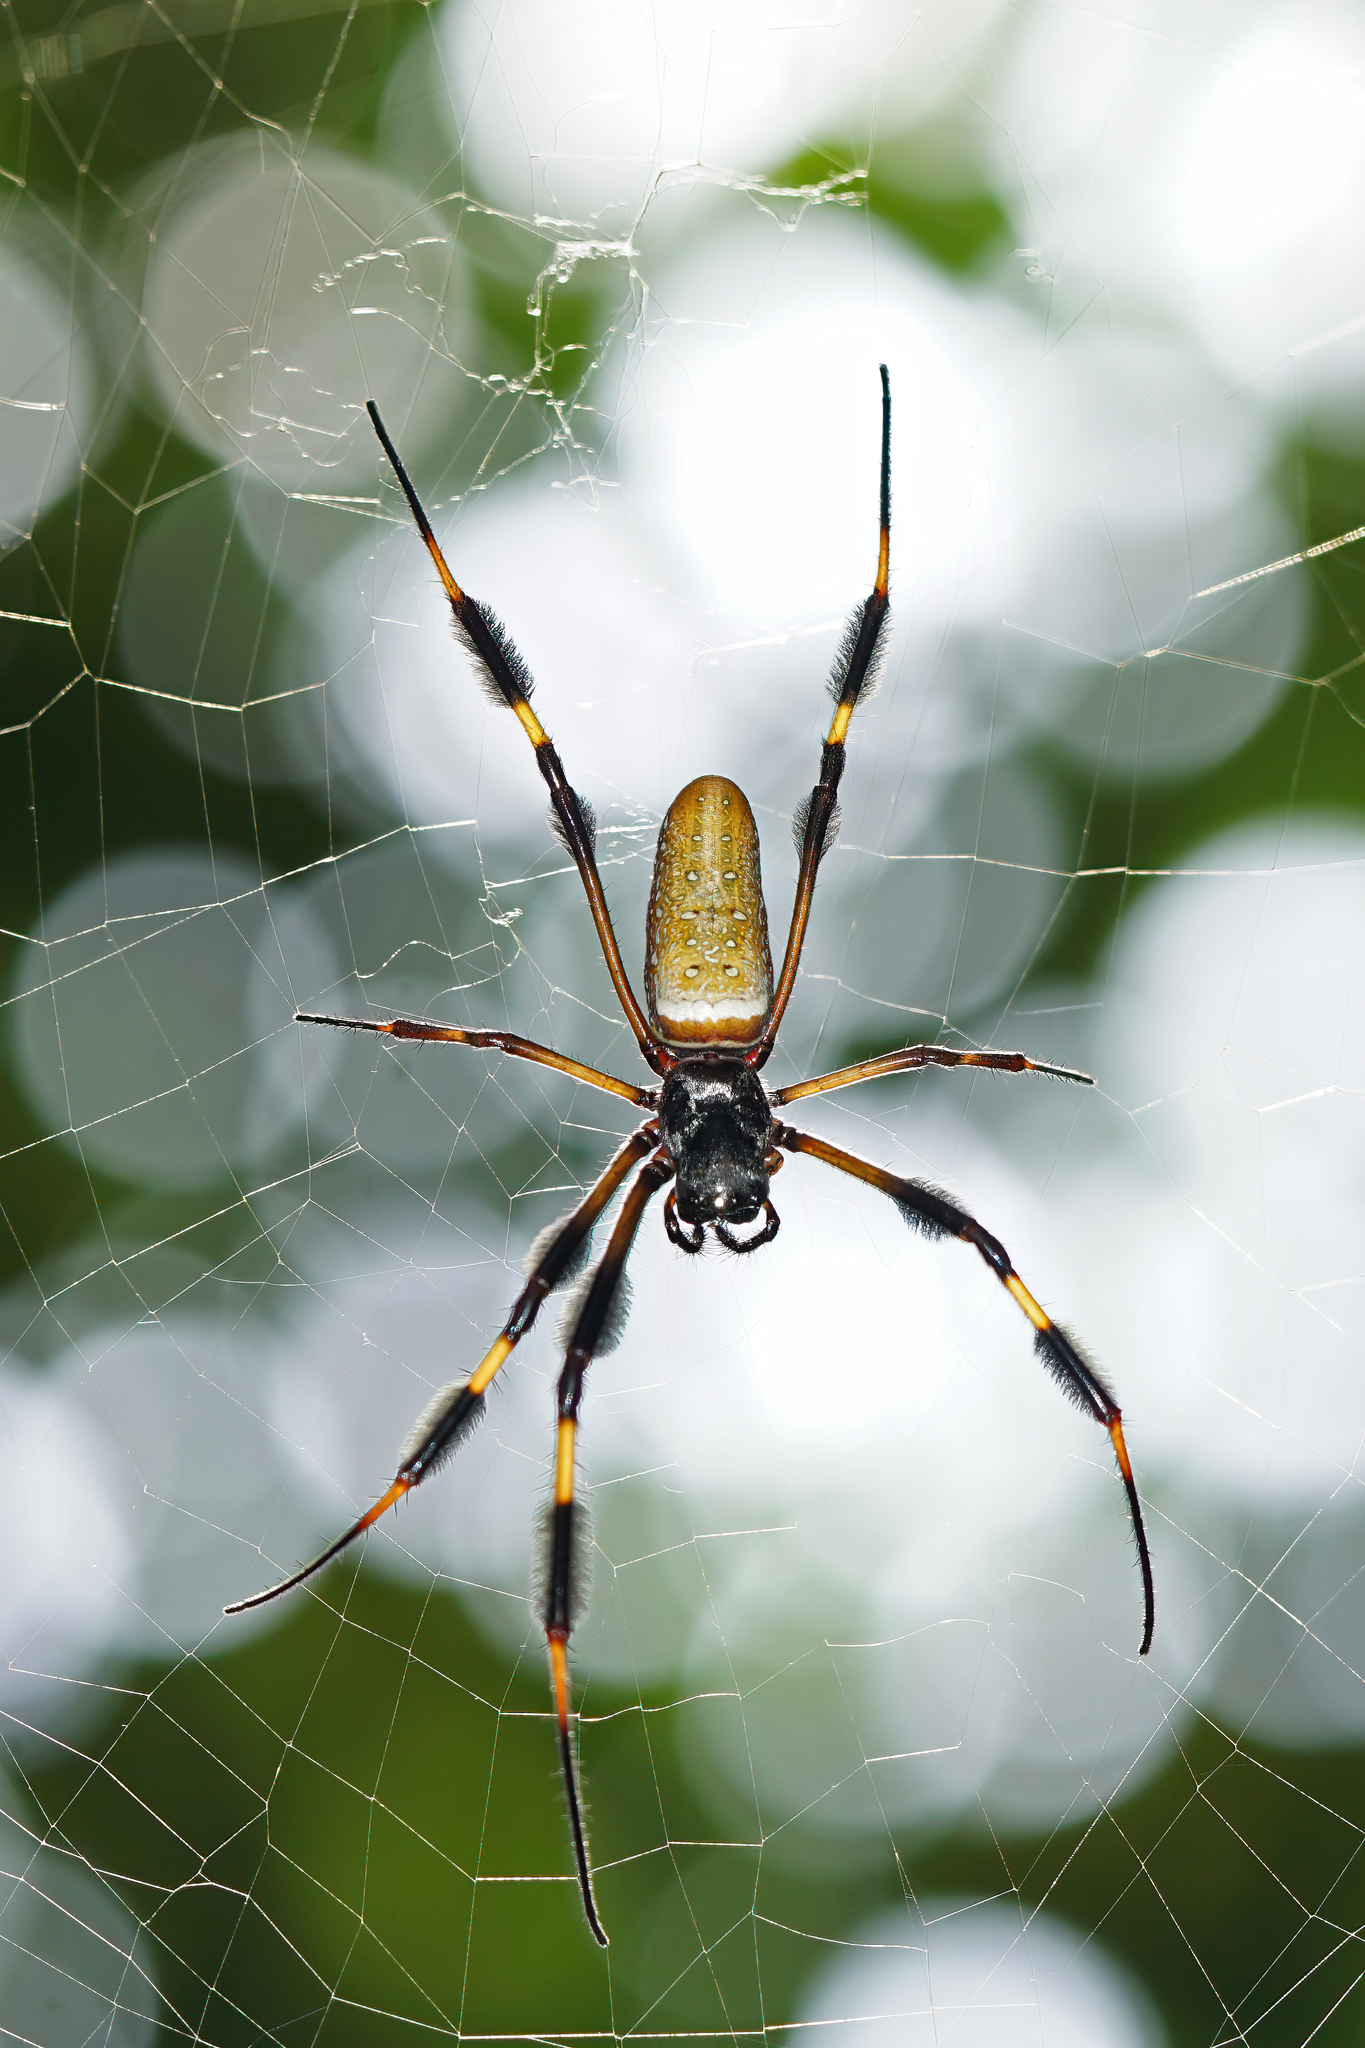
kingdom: Animalia
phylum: Arthropoda
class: Arachnida
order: Araneae
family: Araneidae
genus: Trichonephila
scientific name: Trichonephila clavipes
